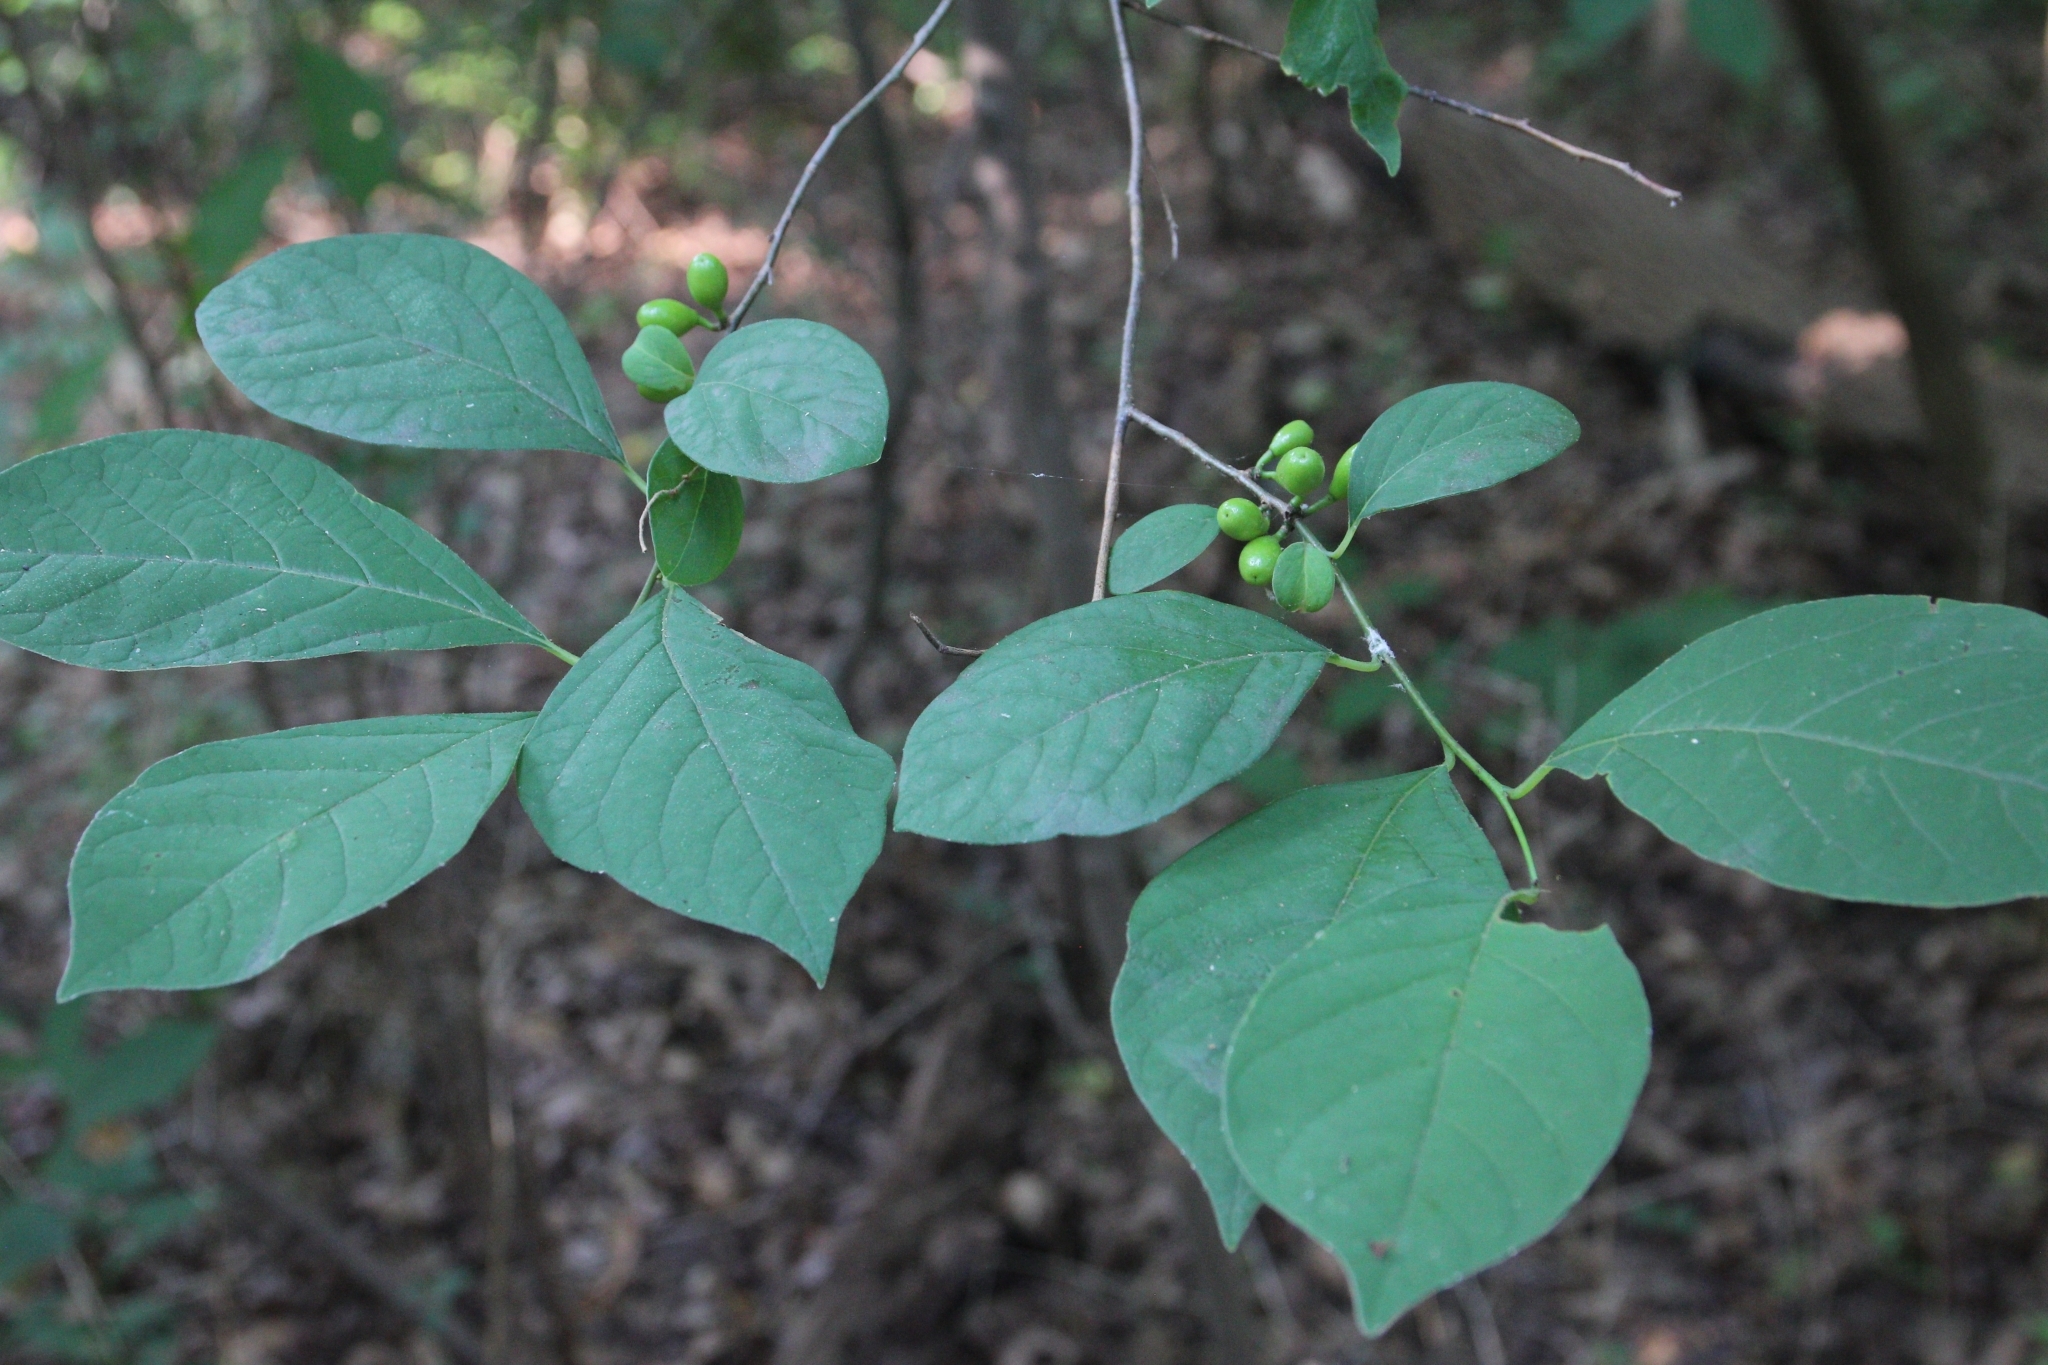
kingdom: Plantae
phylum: Tracheophyta
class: Magnoliopsida
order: Laurales
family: Lauraceae
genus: Lindera
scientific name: Lindera benzoin
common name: Spicebush
